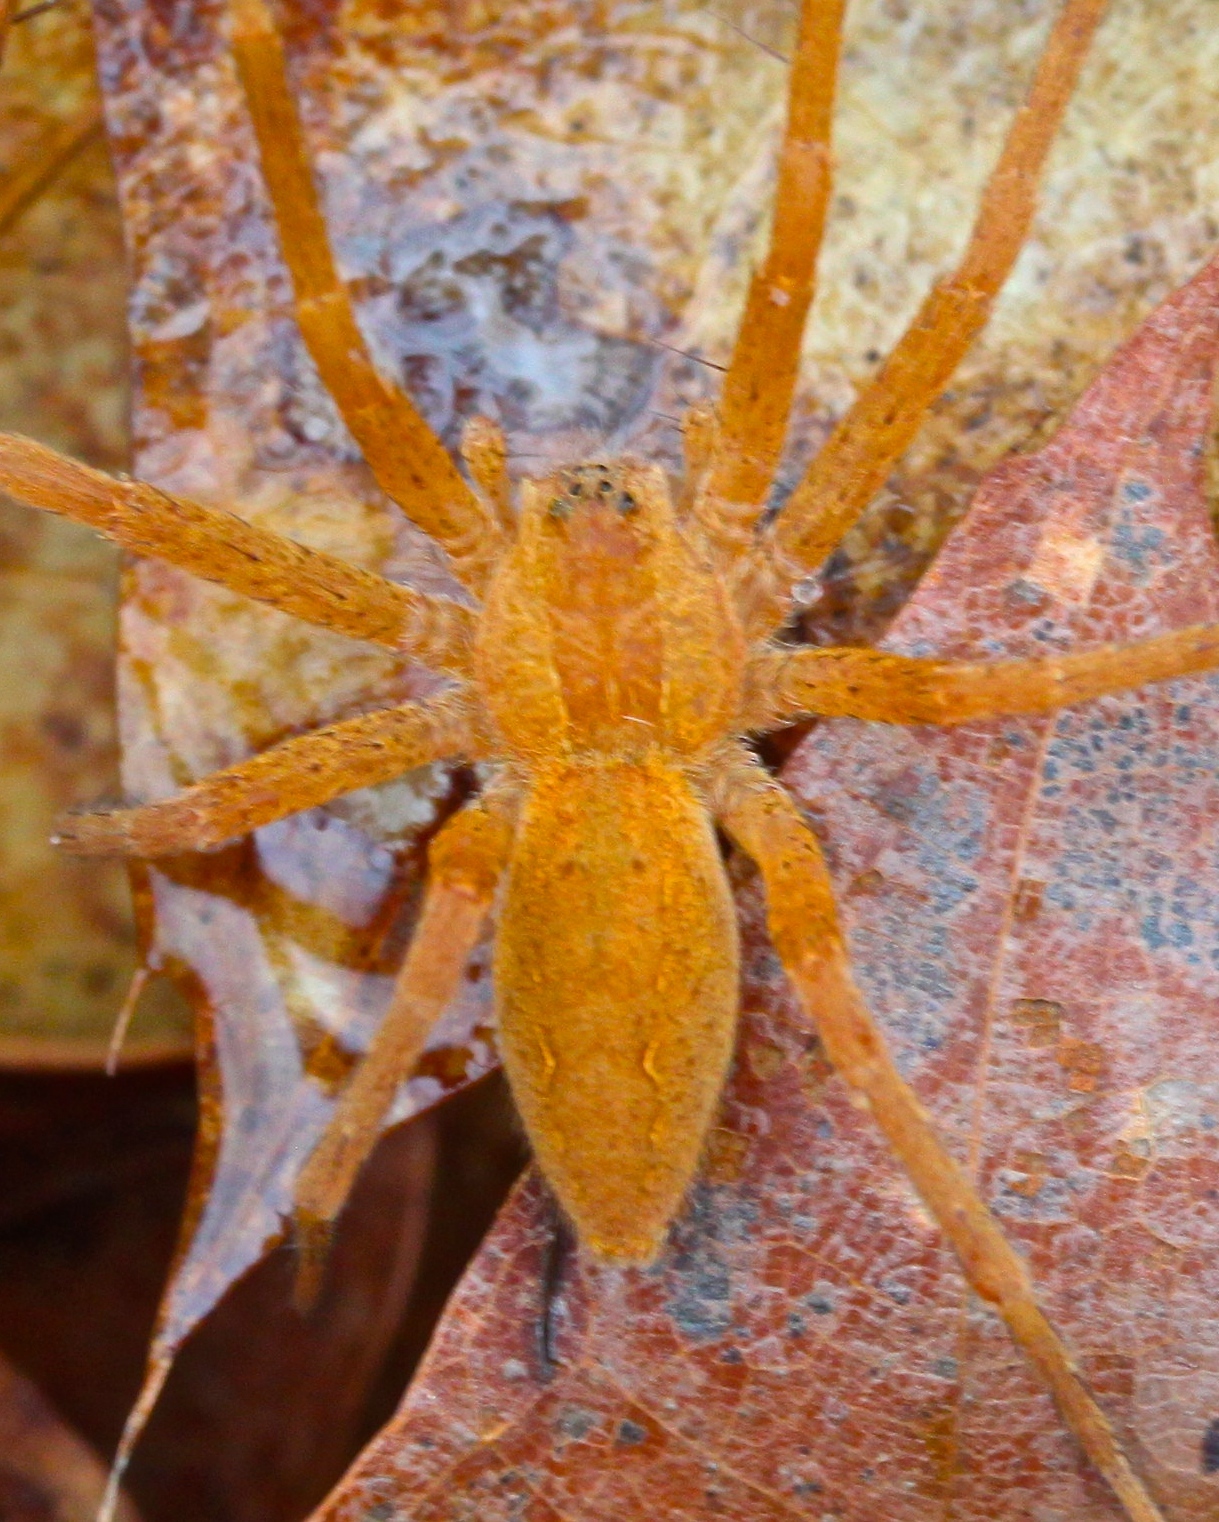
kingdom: Animalia
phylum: Arthropoda
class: Arachnida
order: Araneae
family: Pisauridae
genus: Pisaurina
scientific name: Pisaurina mira
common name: American nursery web spider
